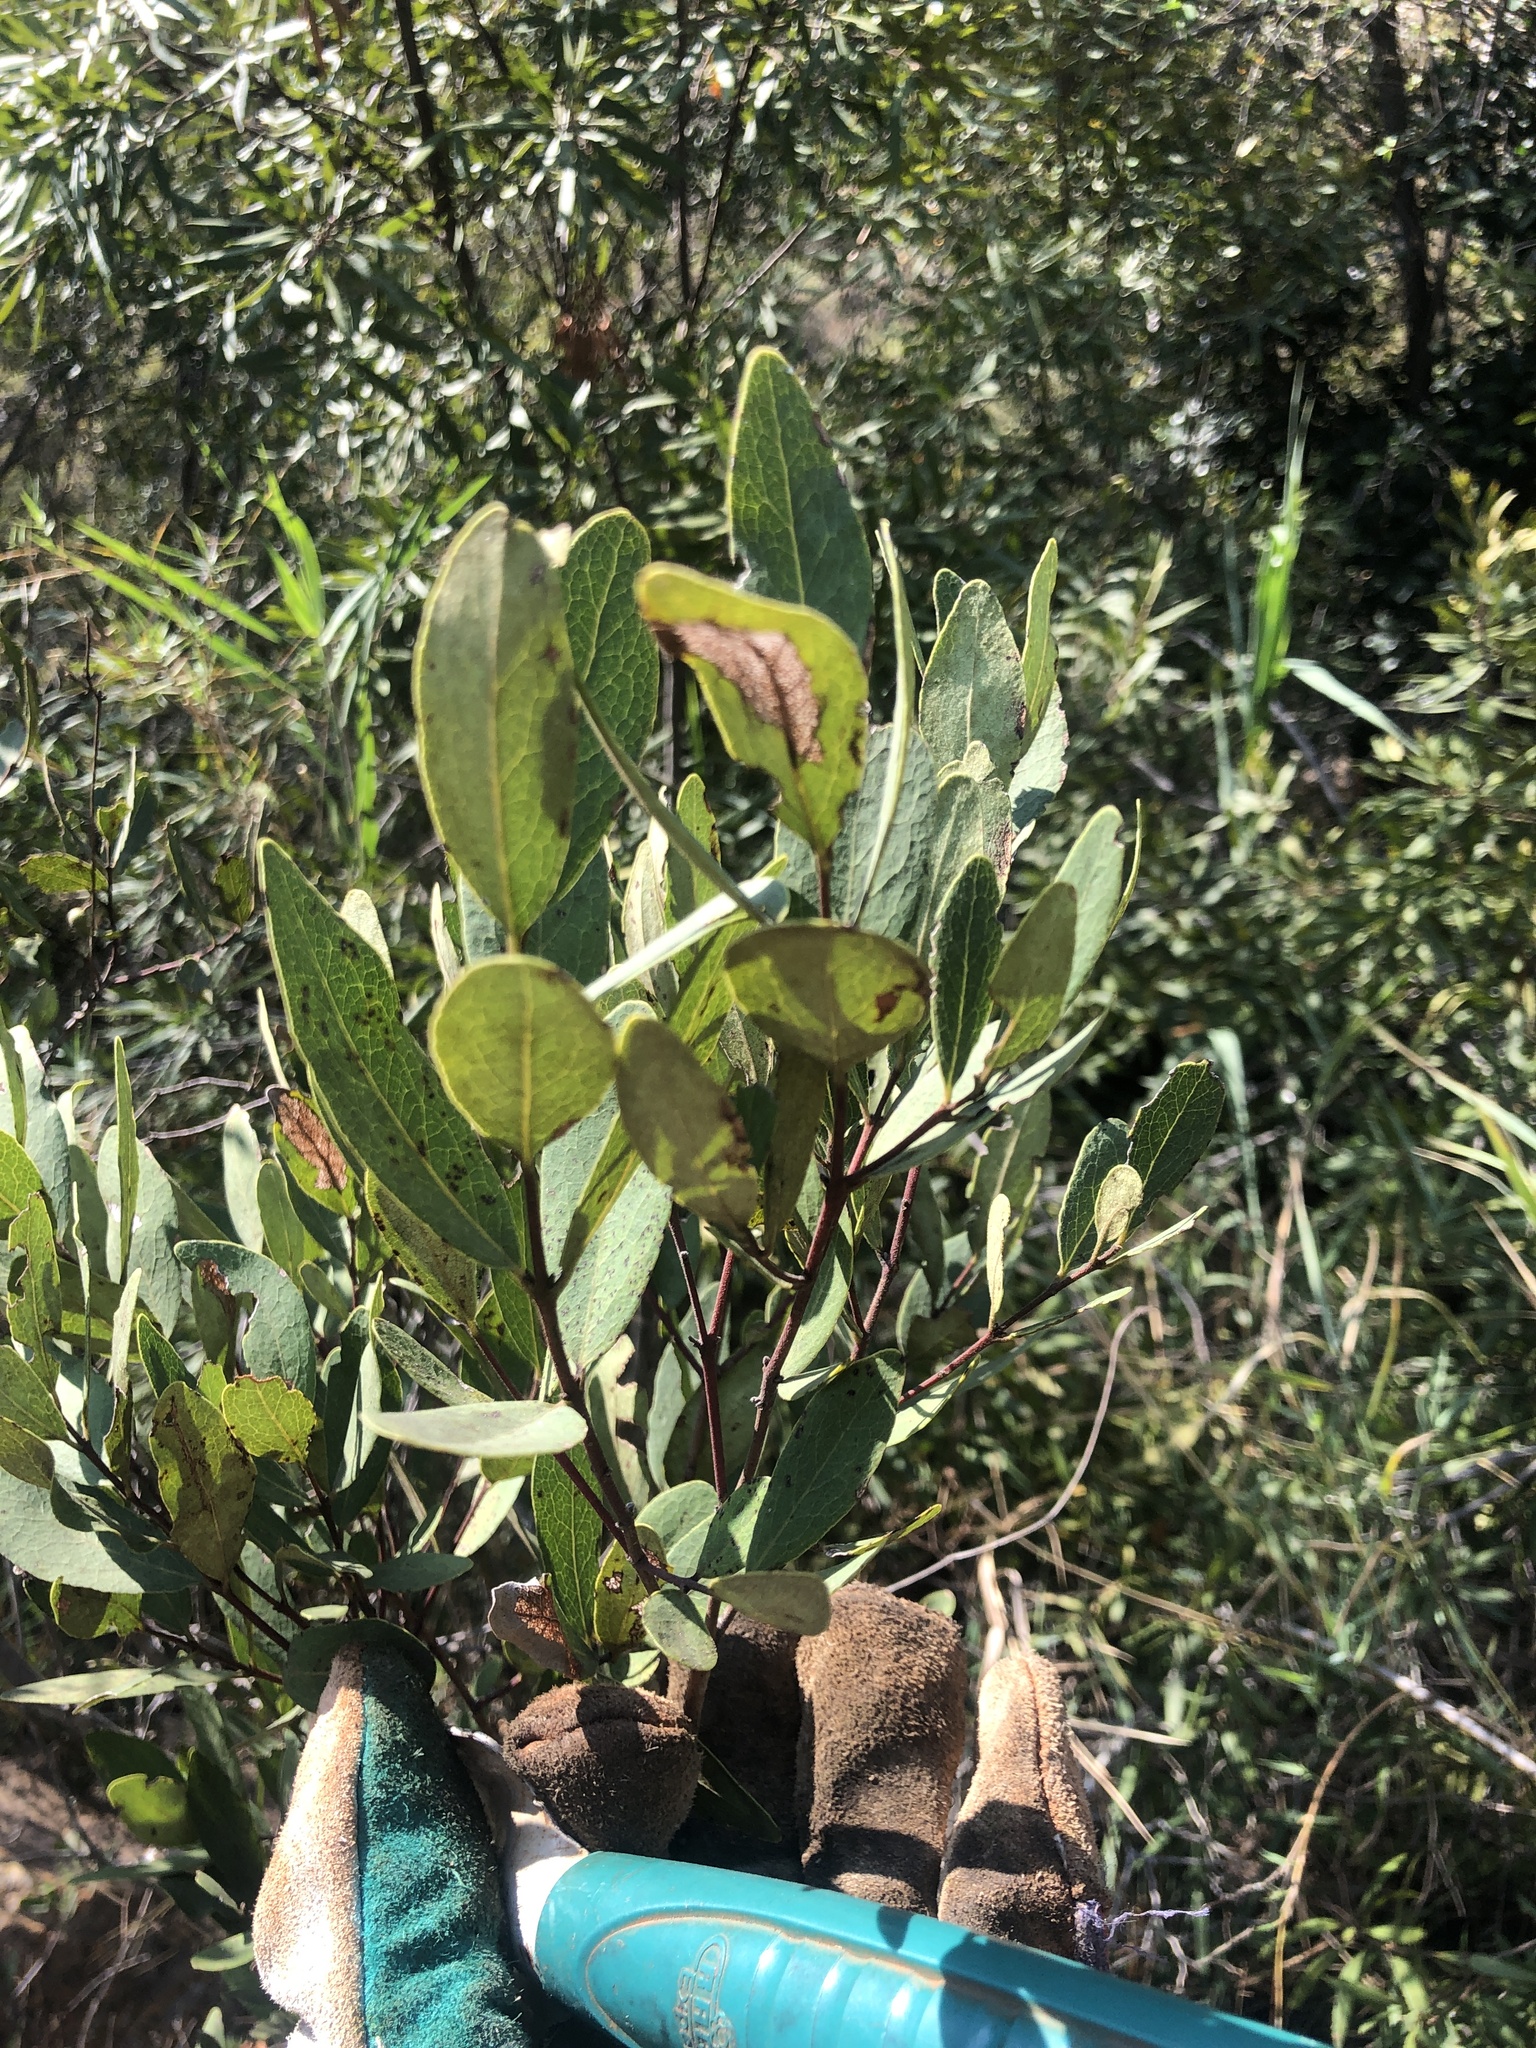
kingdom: Plantae
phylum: Tracheophyta
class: Magnoliopsida
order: Ericales
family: Ebenaceae
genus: Euclea
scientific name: Euclea crispa
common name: Blue guarri
